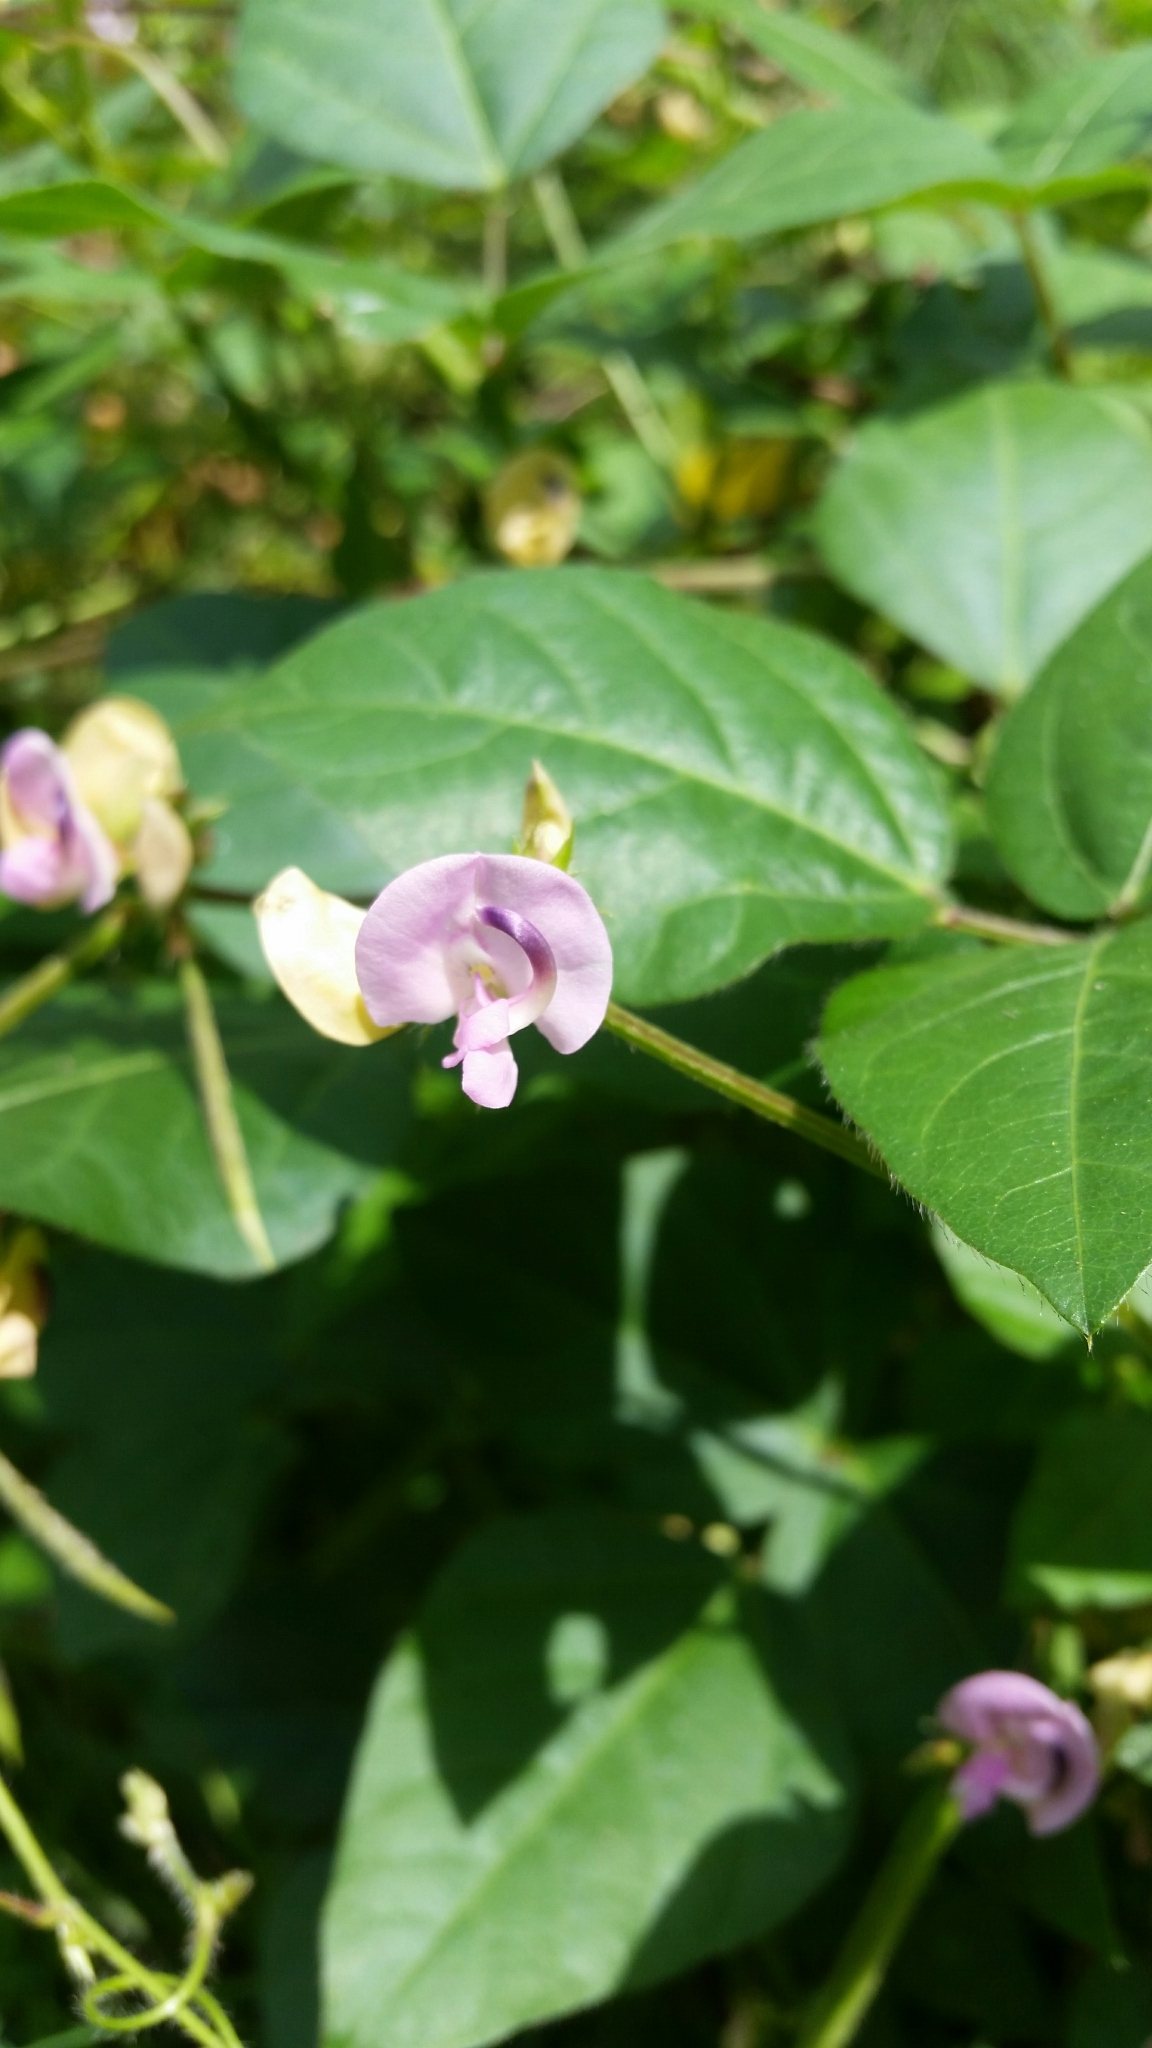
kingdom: Plantae
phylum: Tracheophyta
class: Magnoliopsida
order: Fabales
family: Fabaceae
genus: Strophostyles
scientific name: Strophostyles helvola
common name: Trailing wild bean
